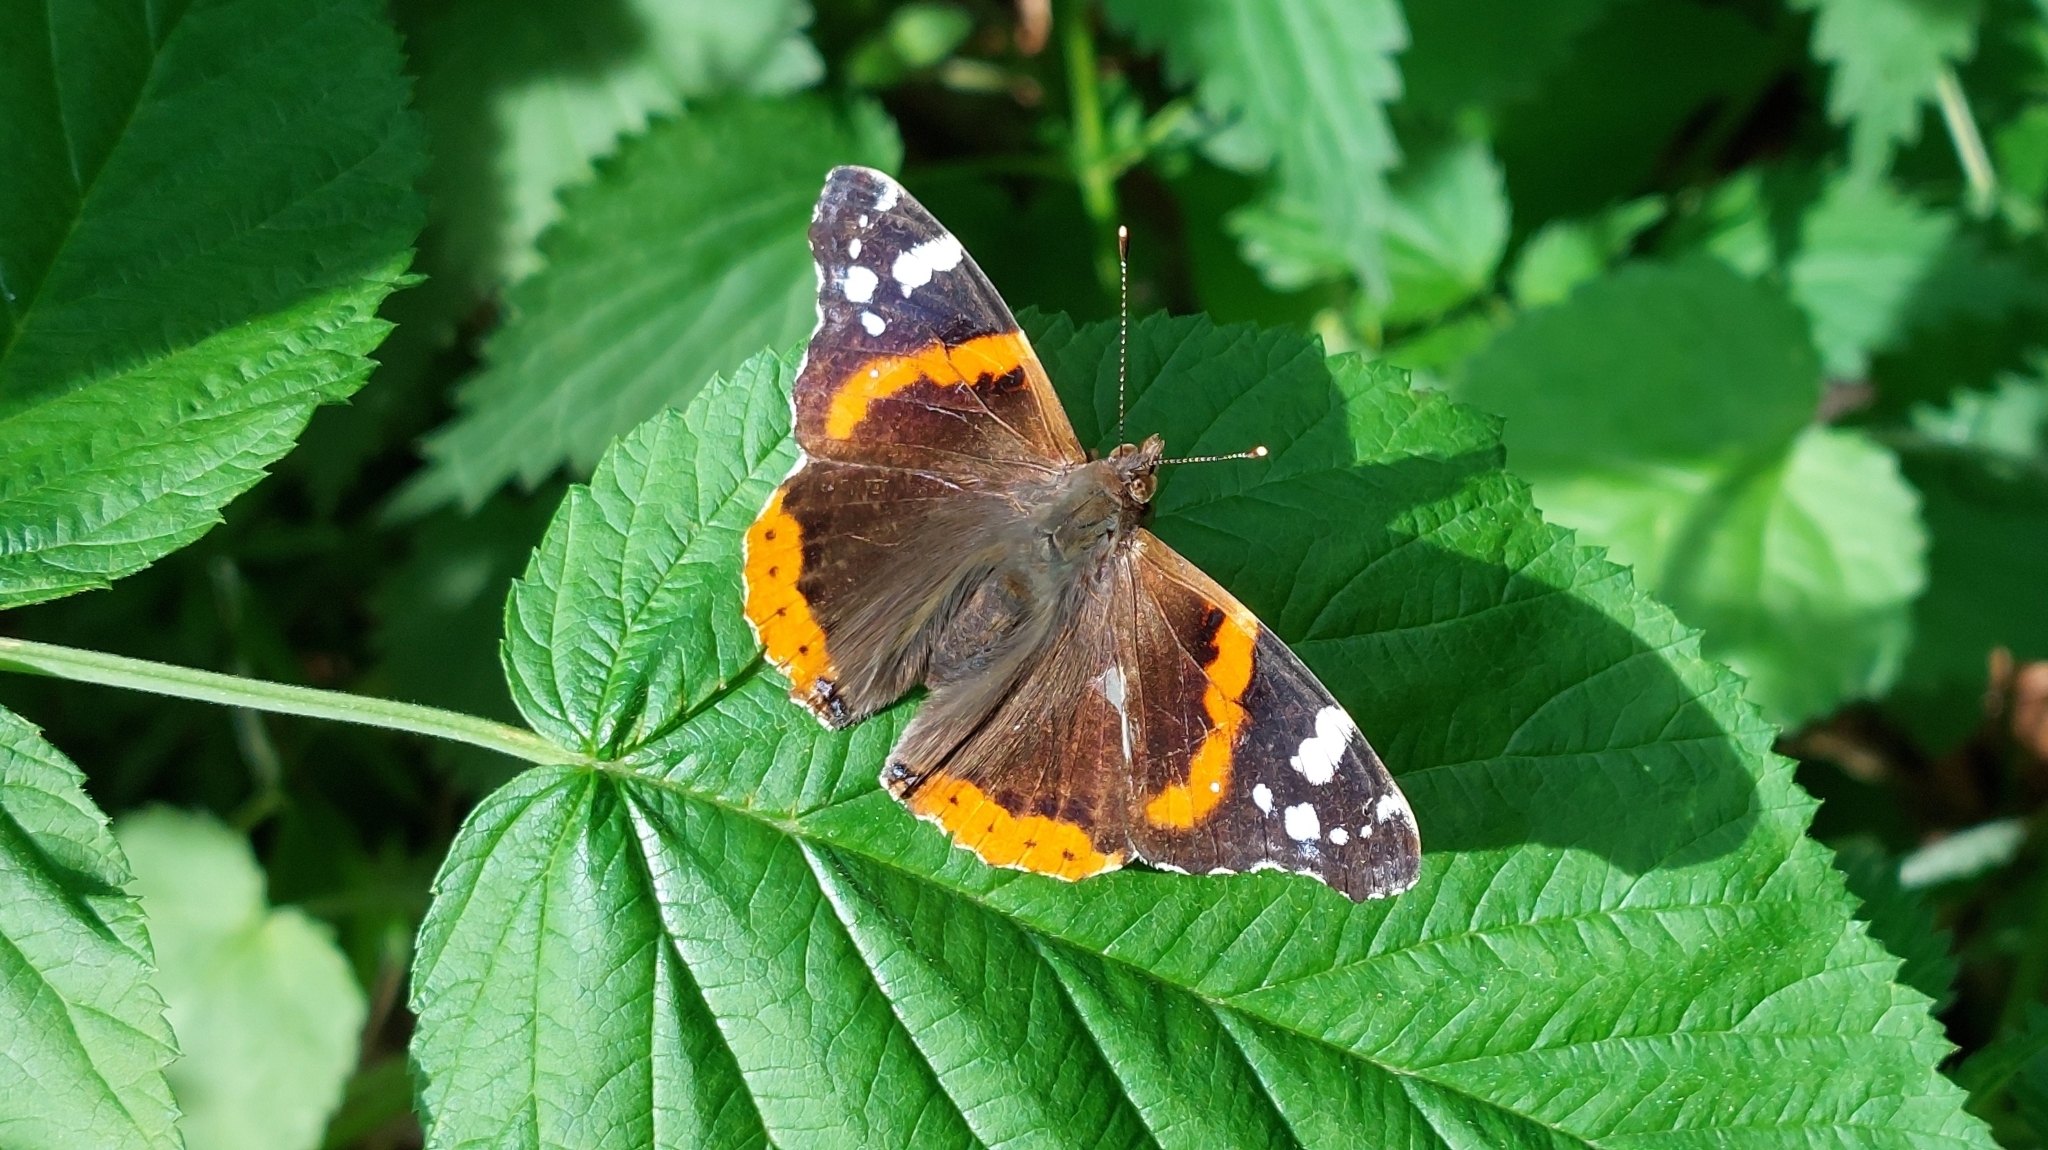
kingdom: Animalia
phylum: Arthropoda
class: Insecta
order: Lepidoptera
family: Nymphalidae
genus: Vanessa
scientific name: Vanessa atalanta
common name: Red admiral
